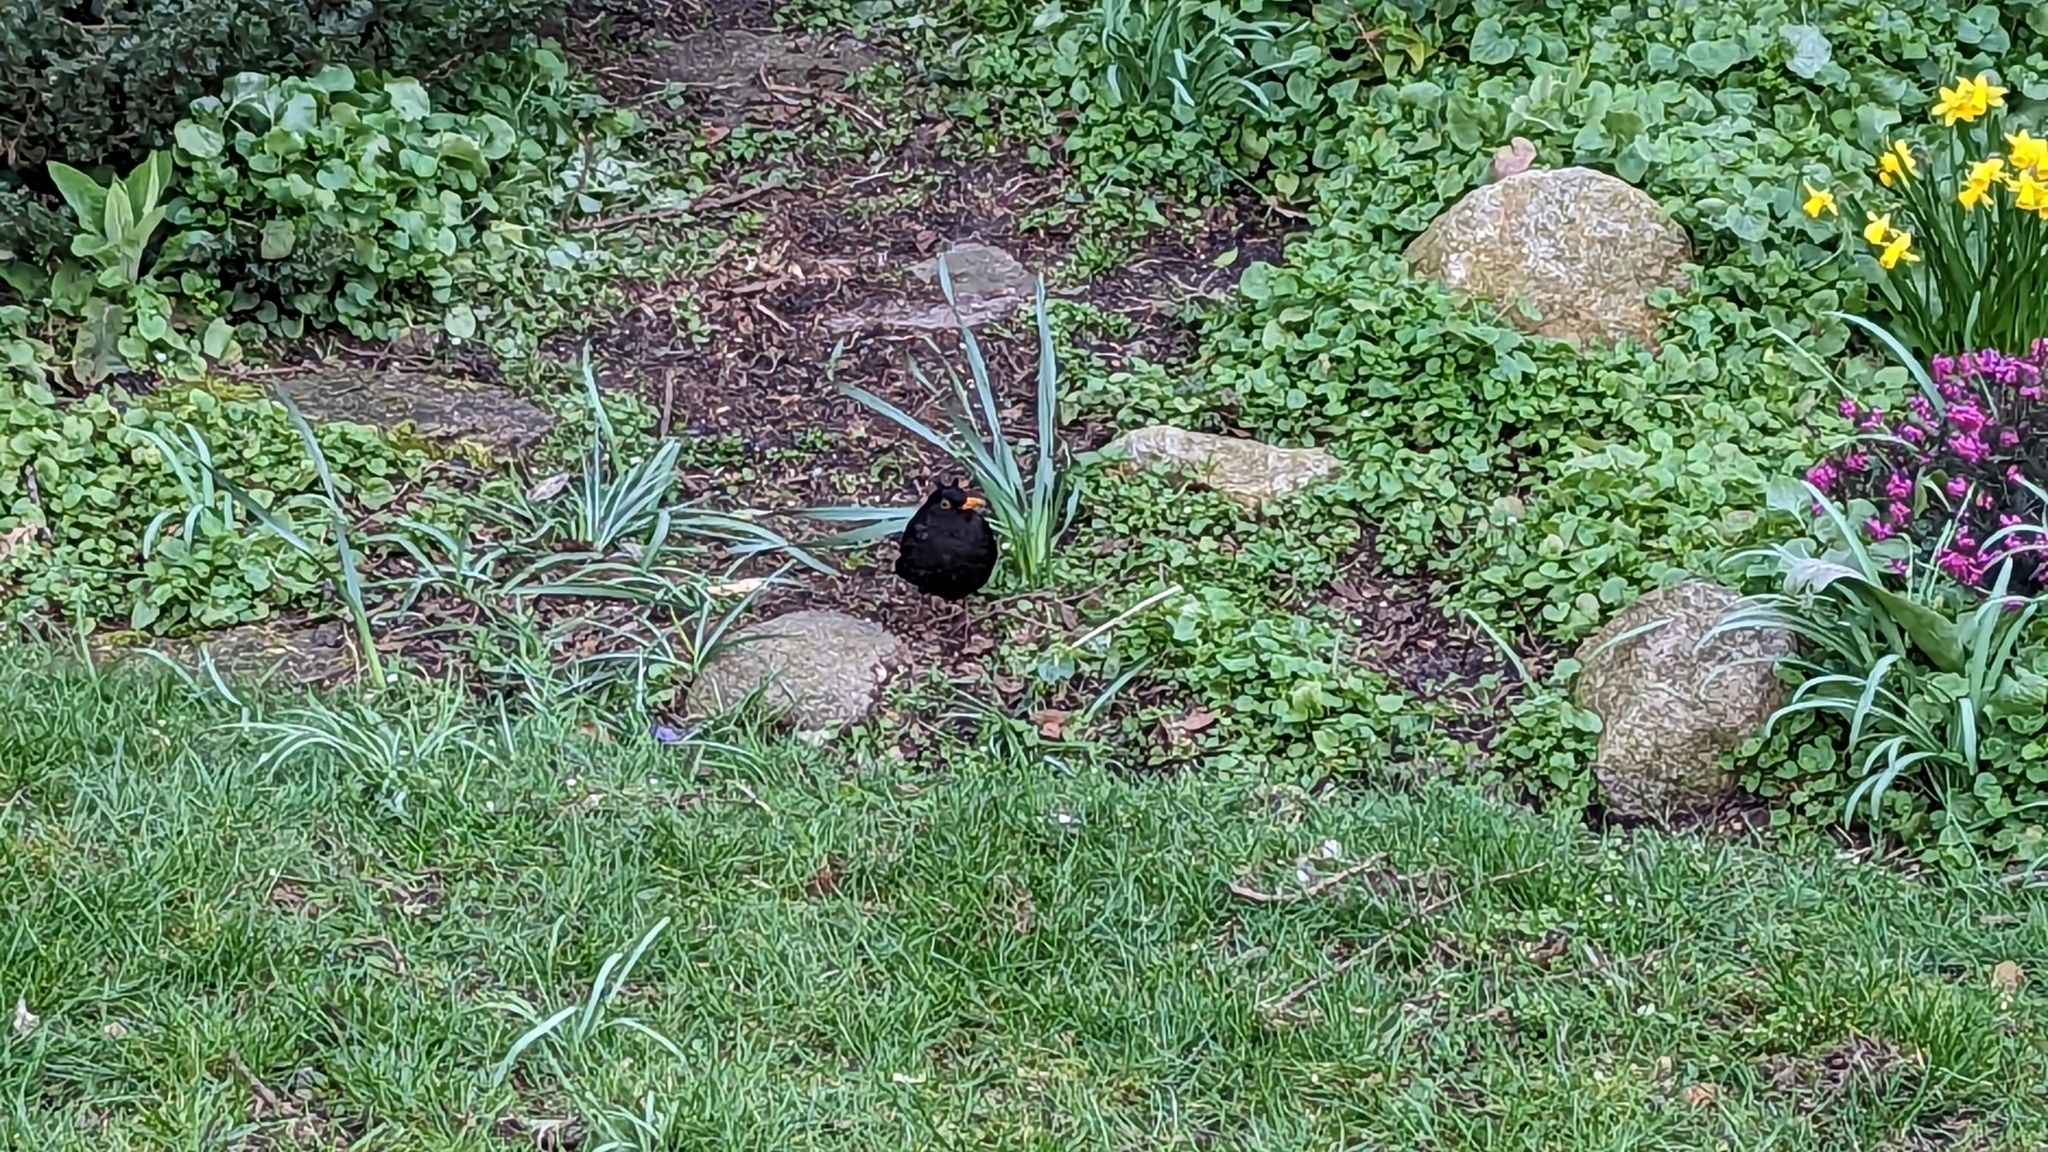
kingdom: Animalia
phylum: Chordata
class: Aves
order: Passeriformes
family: Turdidae
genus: Turdus
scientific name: Turdus merula
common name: Common blackbird
